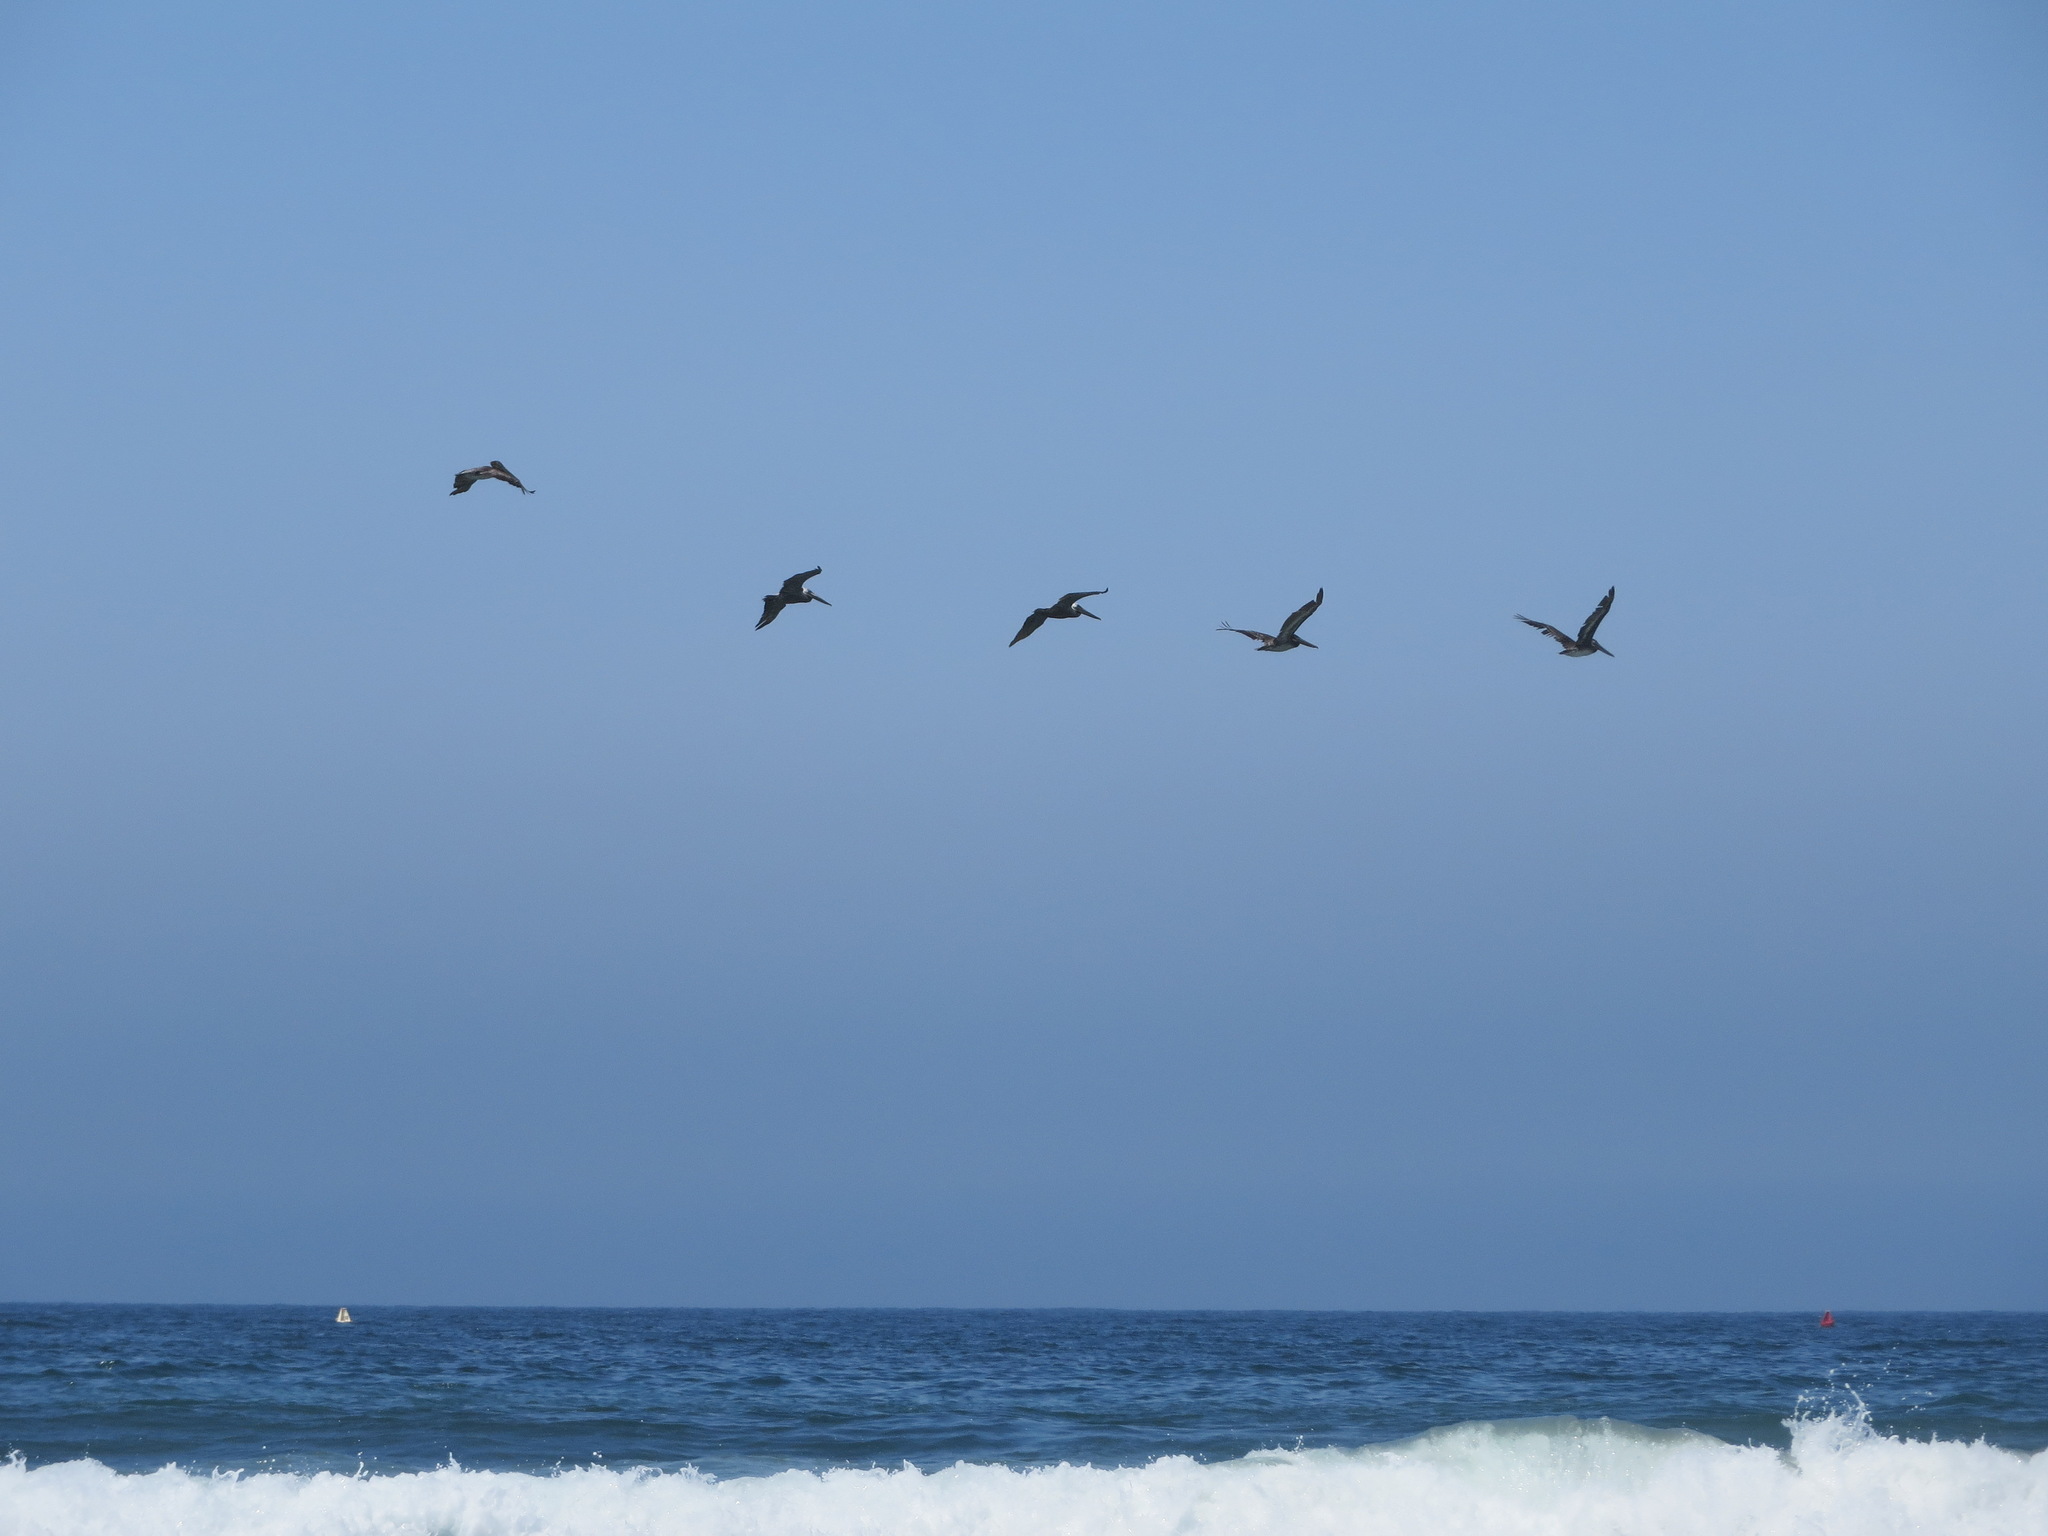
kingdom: Animalia
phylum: Chordata
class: Aves
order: Pelecaniformes
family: Pelecanidae
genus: Pelecanus
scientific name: Pelecanus occidentalis
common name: Brown pelican
